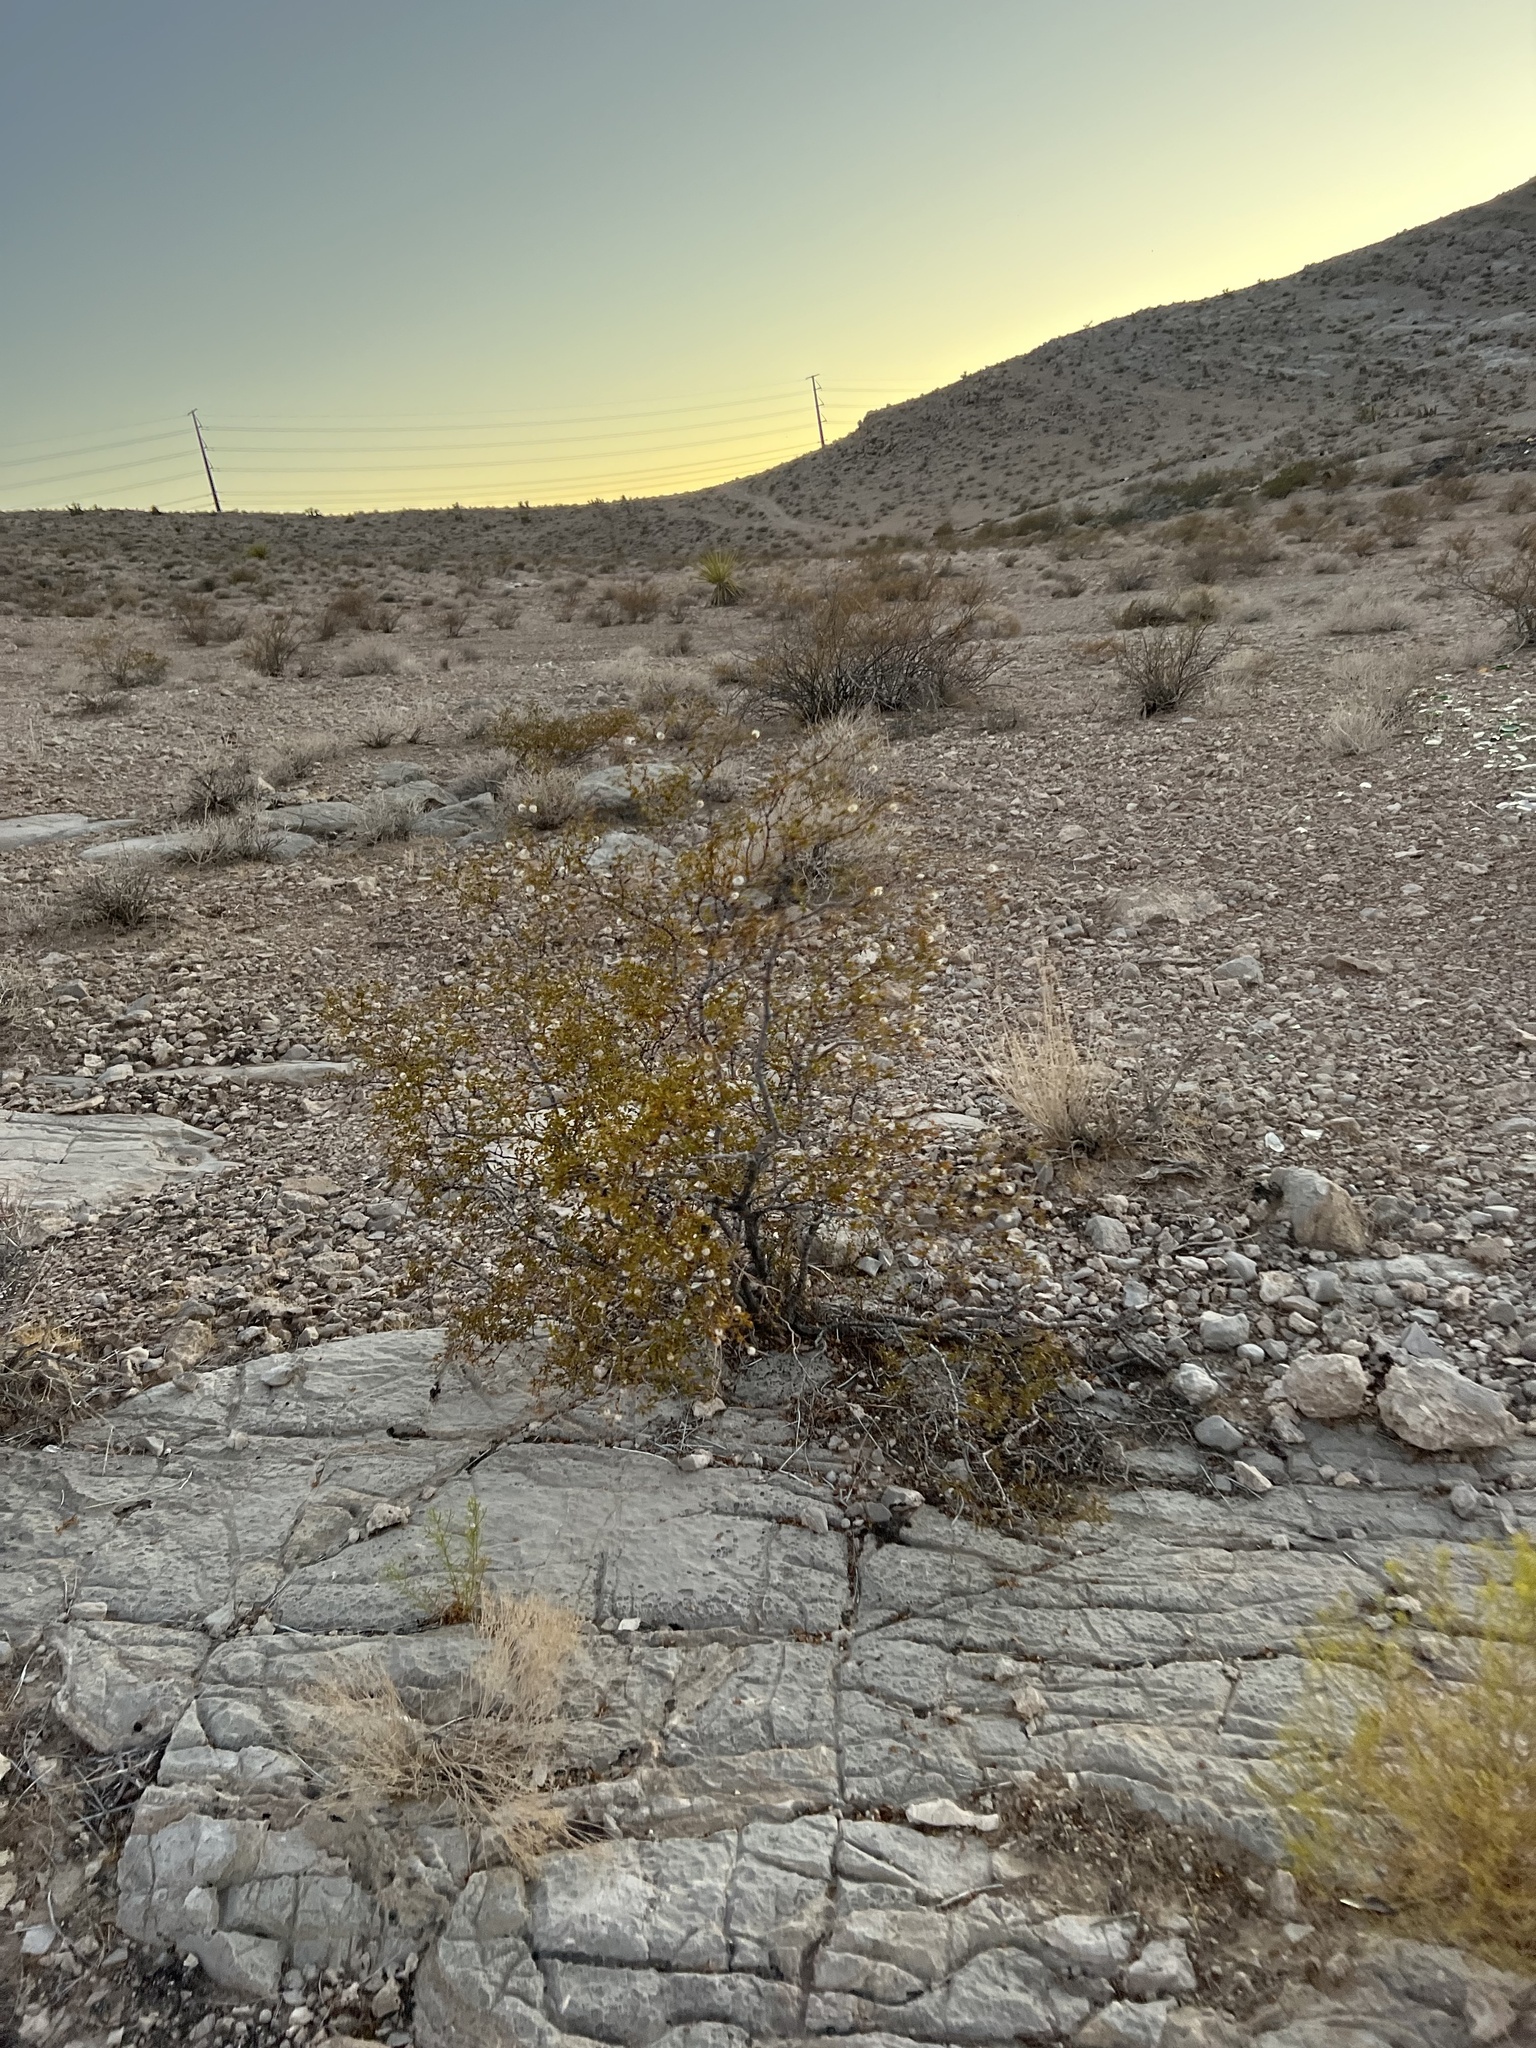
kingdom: Plantae
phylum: Tracheophyta
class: Magnoliopsida
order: Zygophyllales
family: Zygophyllaceae
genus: Larrea
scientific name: Larrea tridentata
